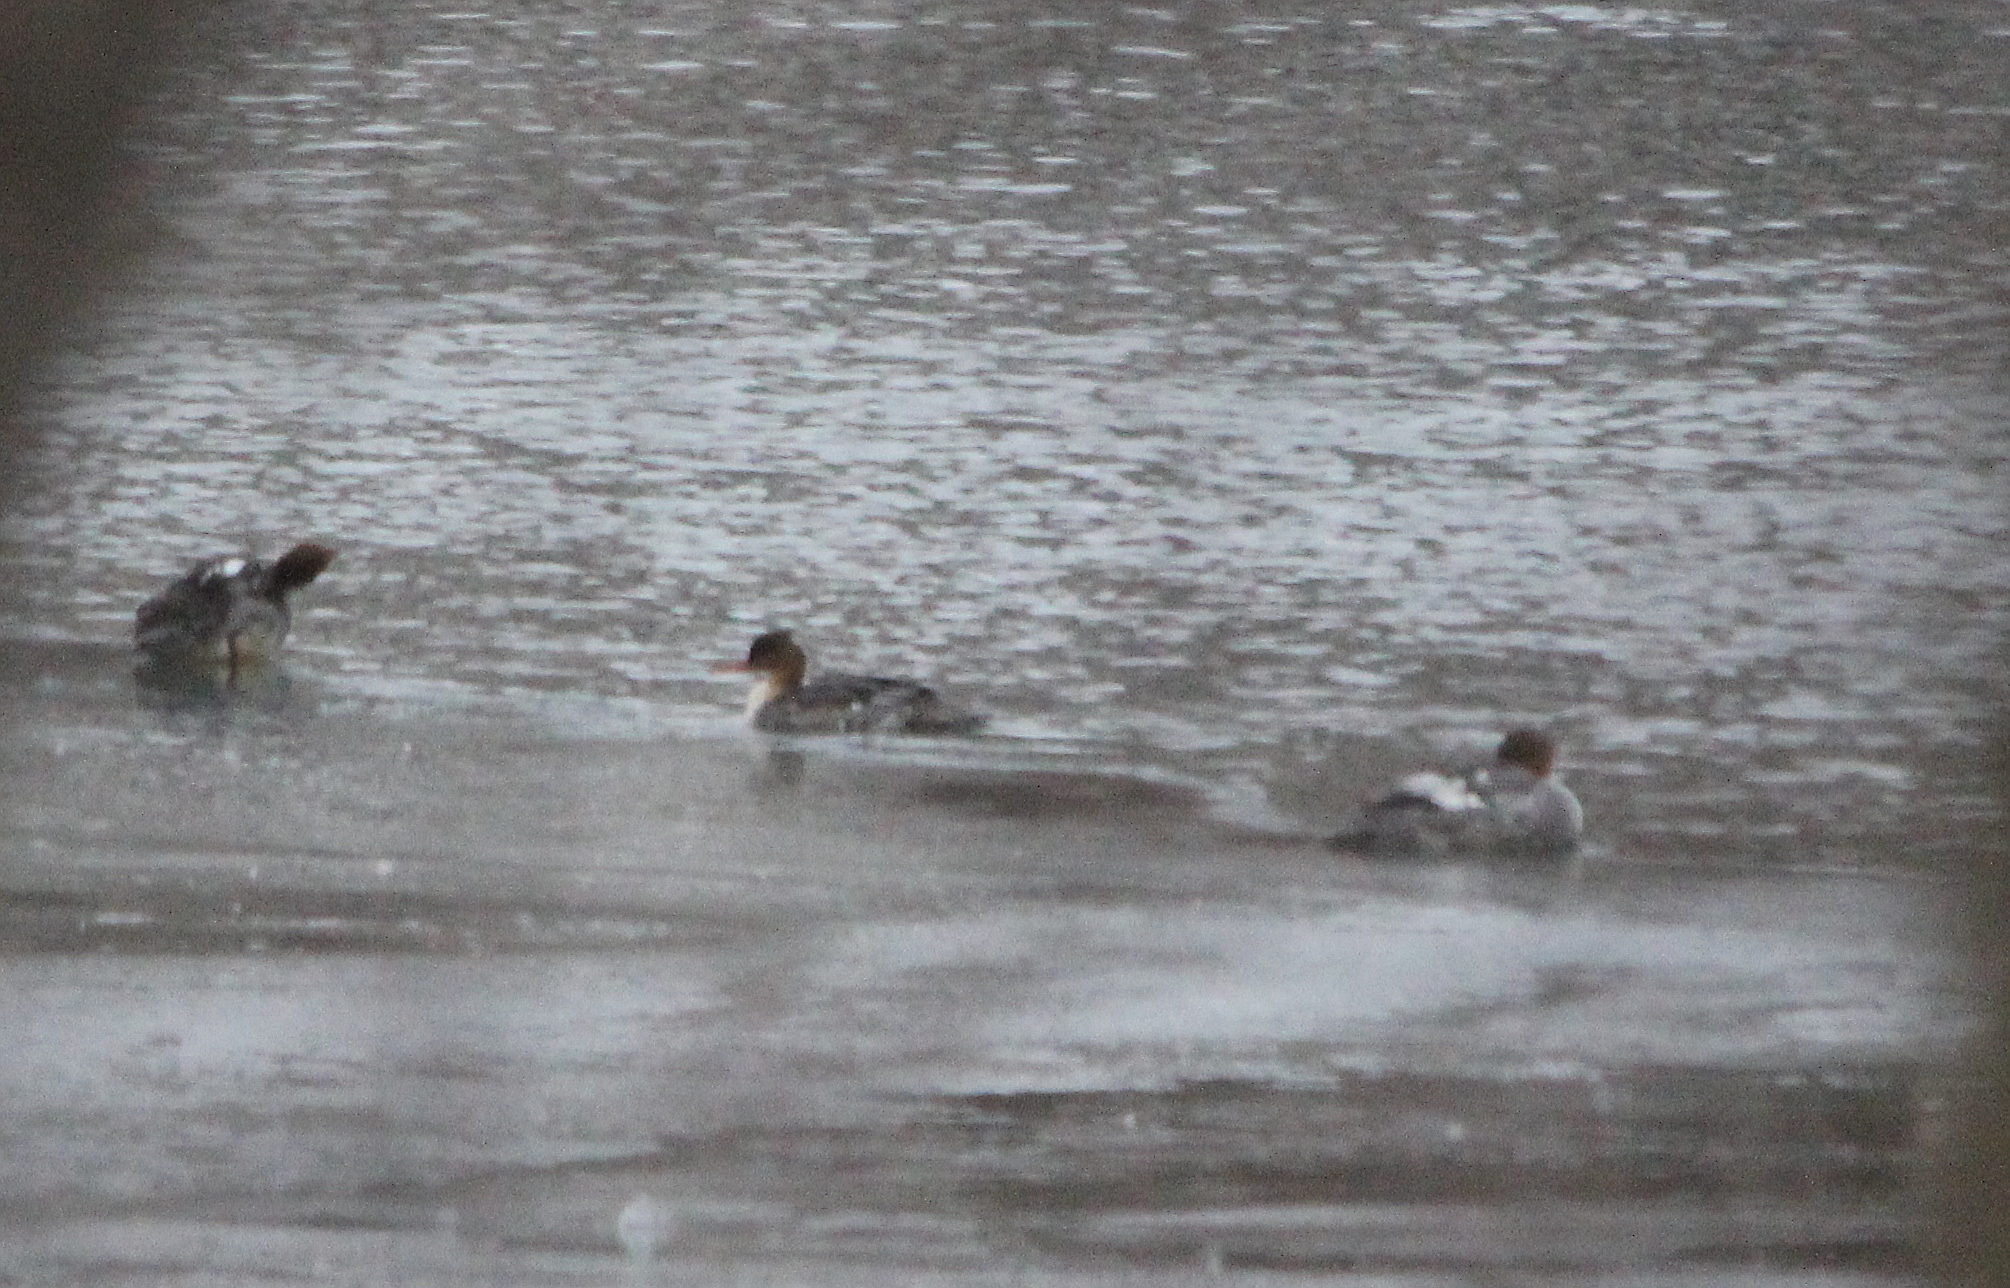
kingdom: Animalia
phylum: Chordata
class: Aves
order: Anseriformes
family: Anatidae
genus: Mergus
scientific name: Mergus serrator
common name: Red-breasted merganser
